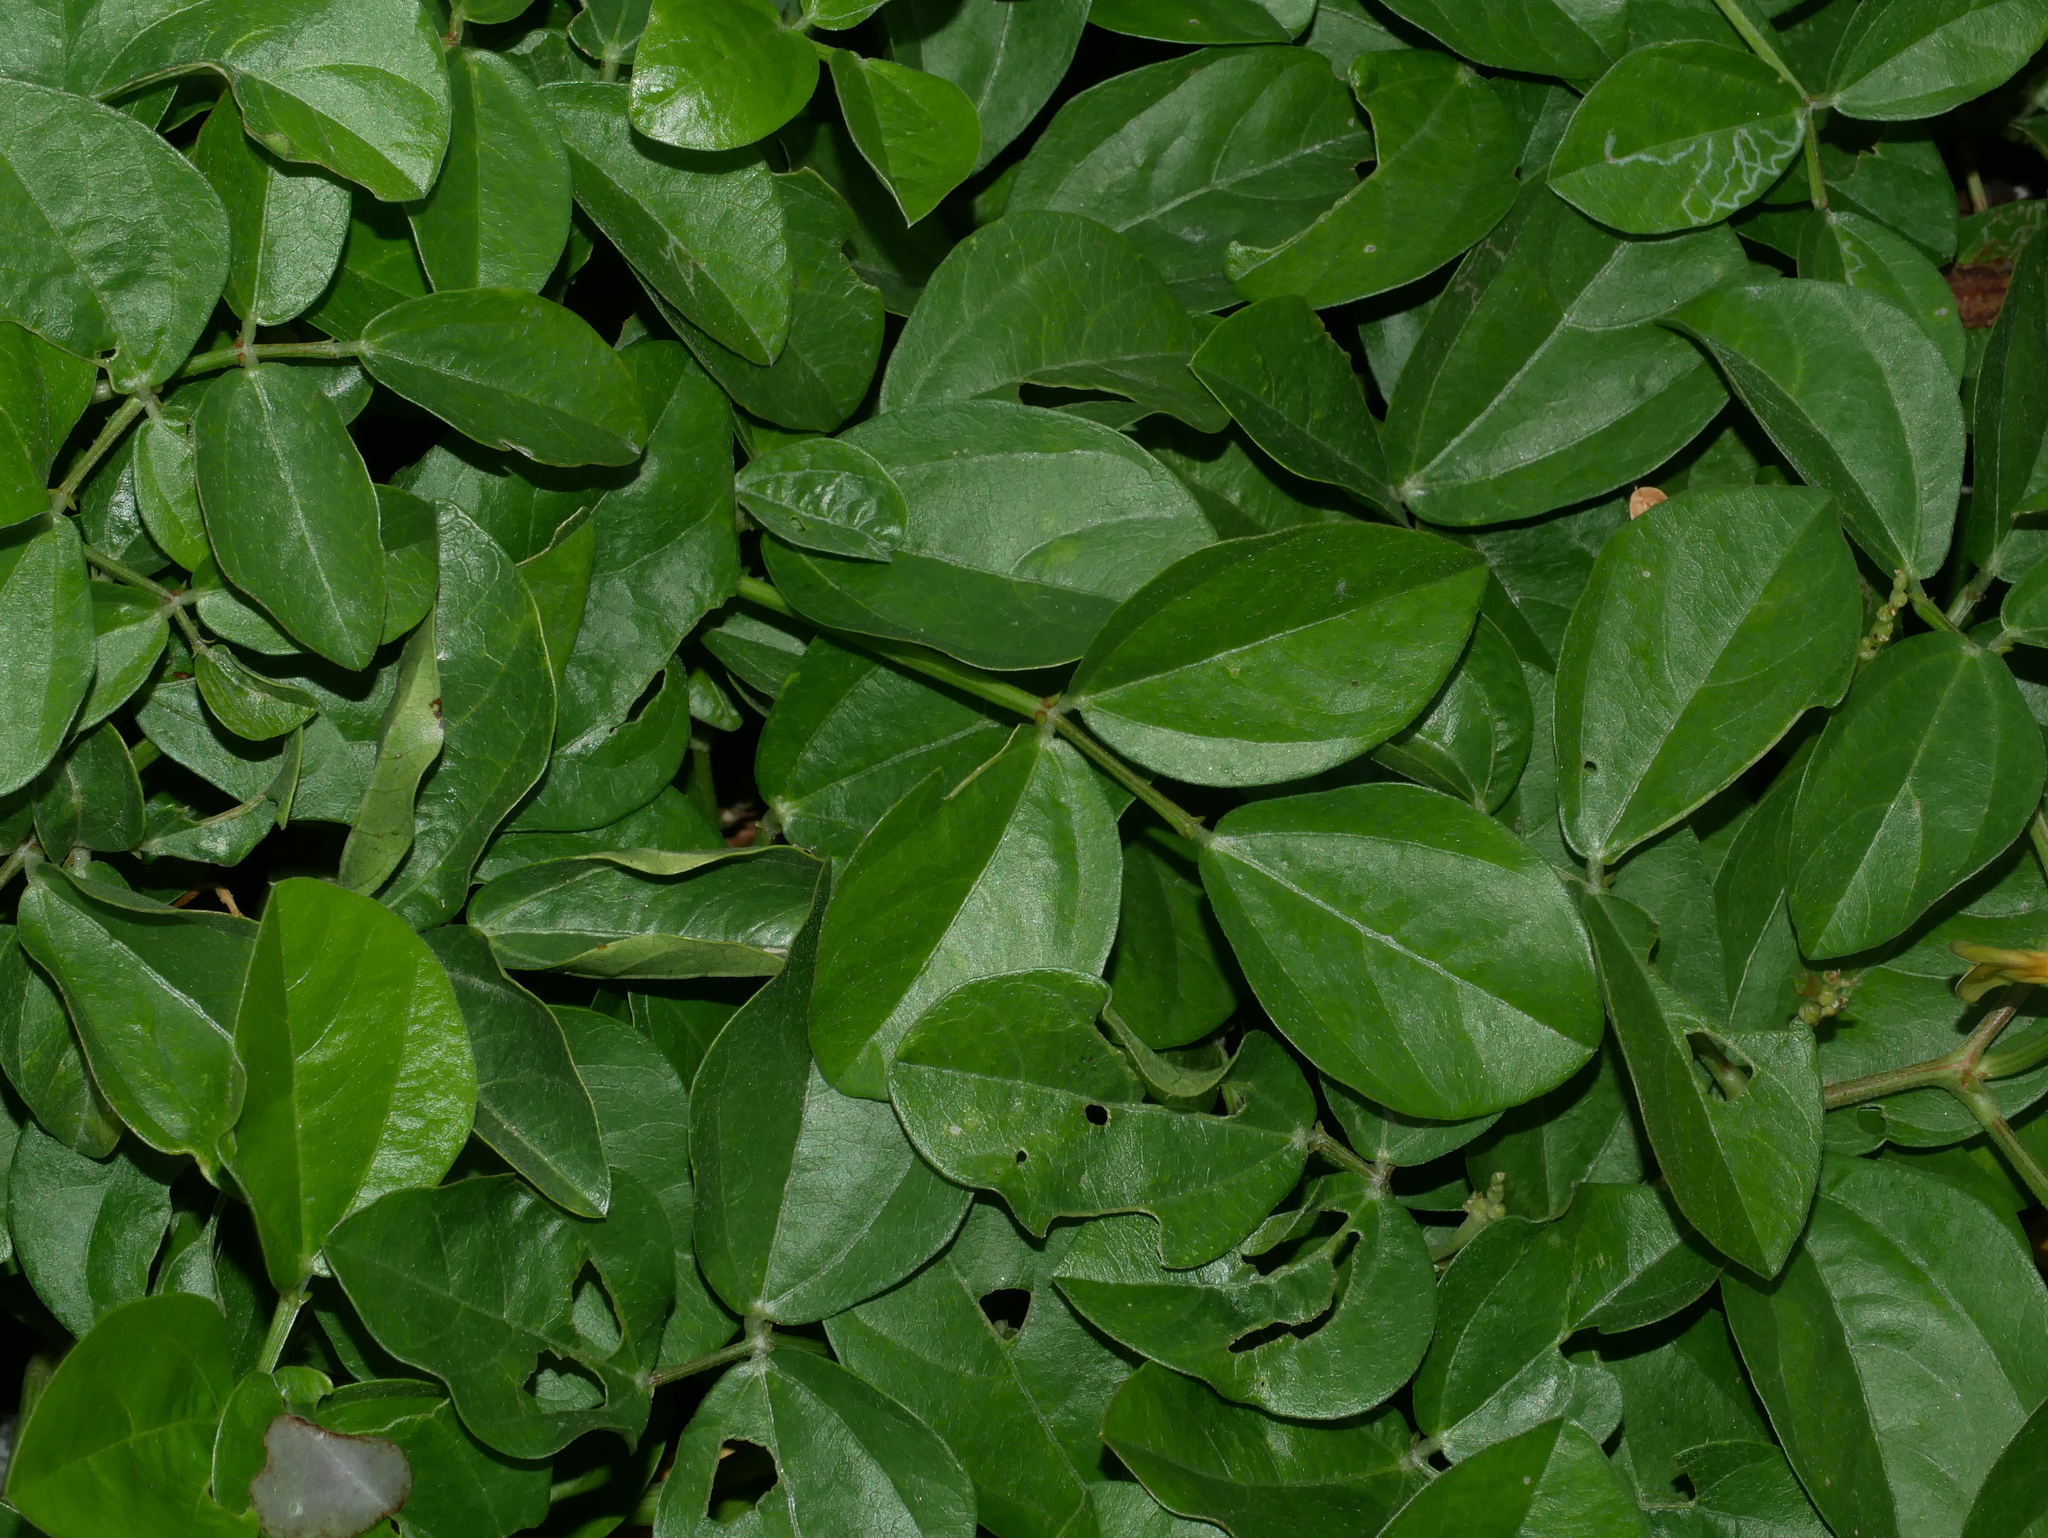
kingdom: Plantae
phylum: Tracheophyta
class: Magnoliopsida
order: Fabales
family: Fabaceae
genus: Vigna
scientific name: Vigna marina
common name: Dune-bean
